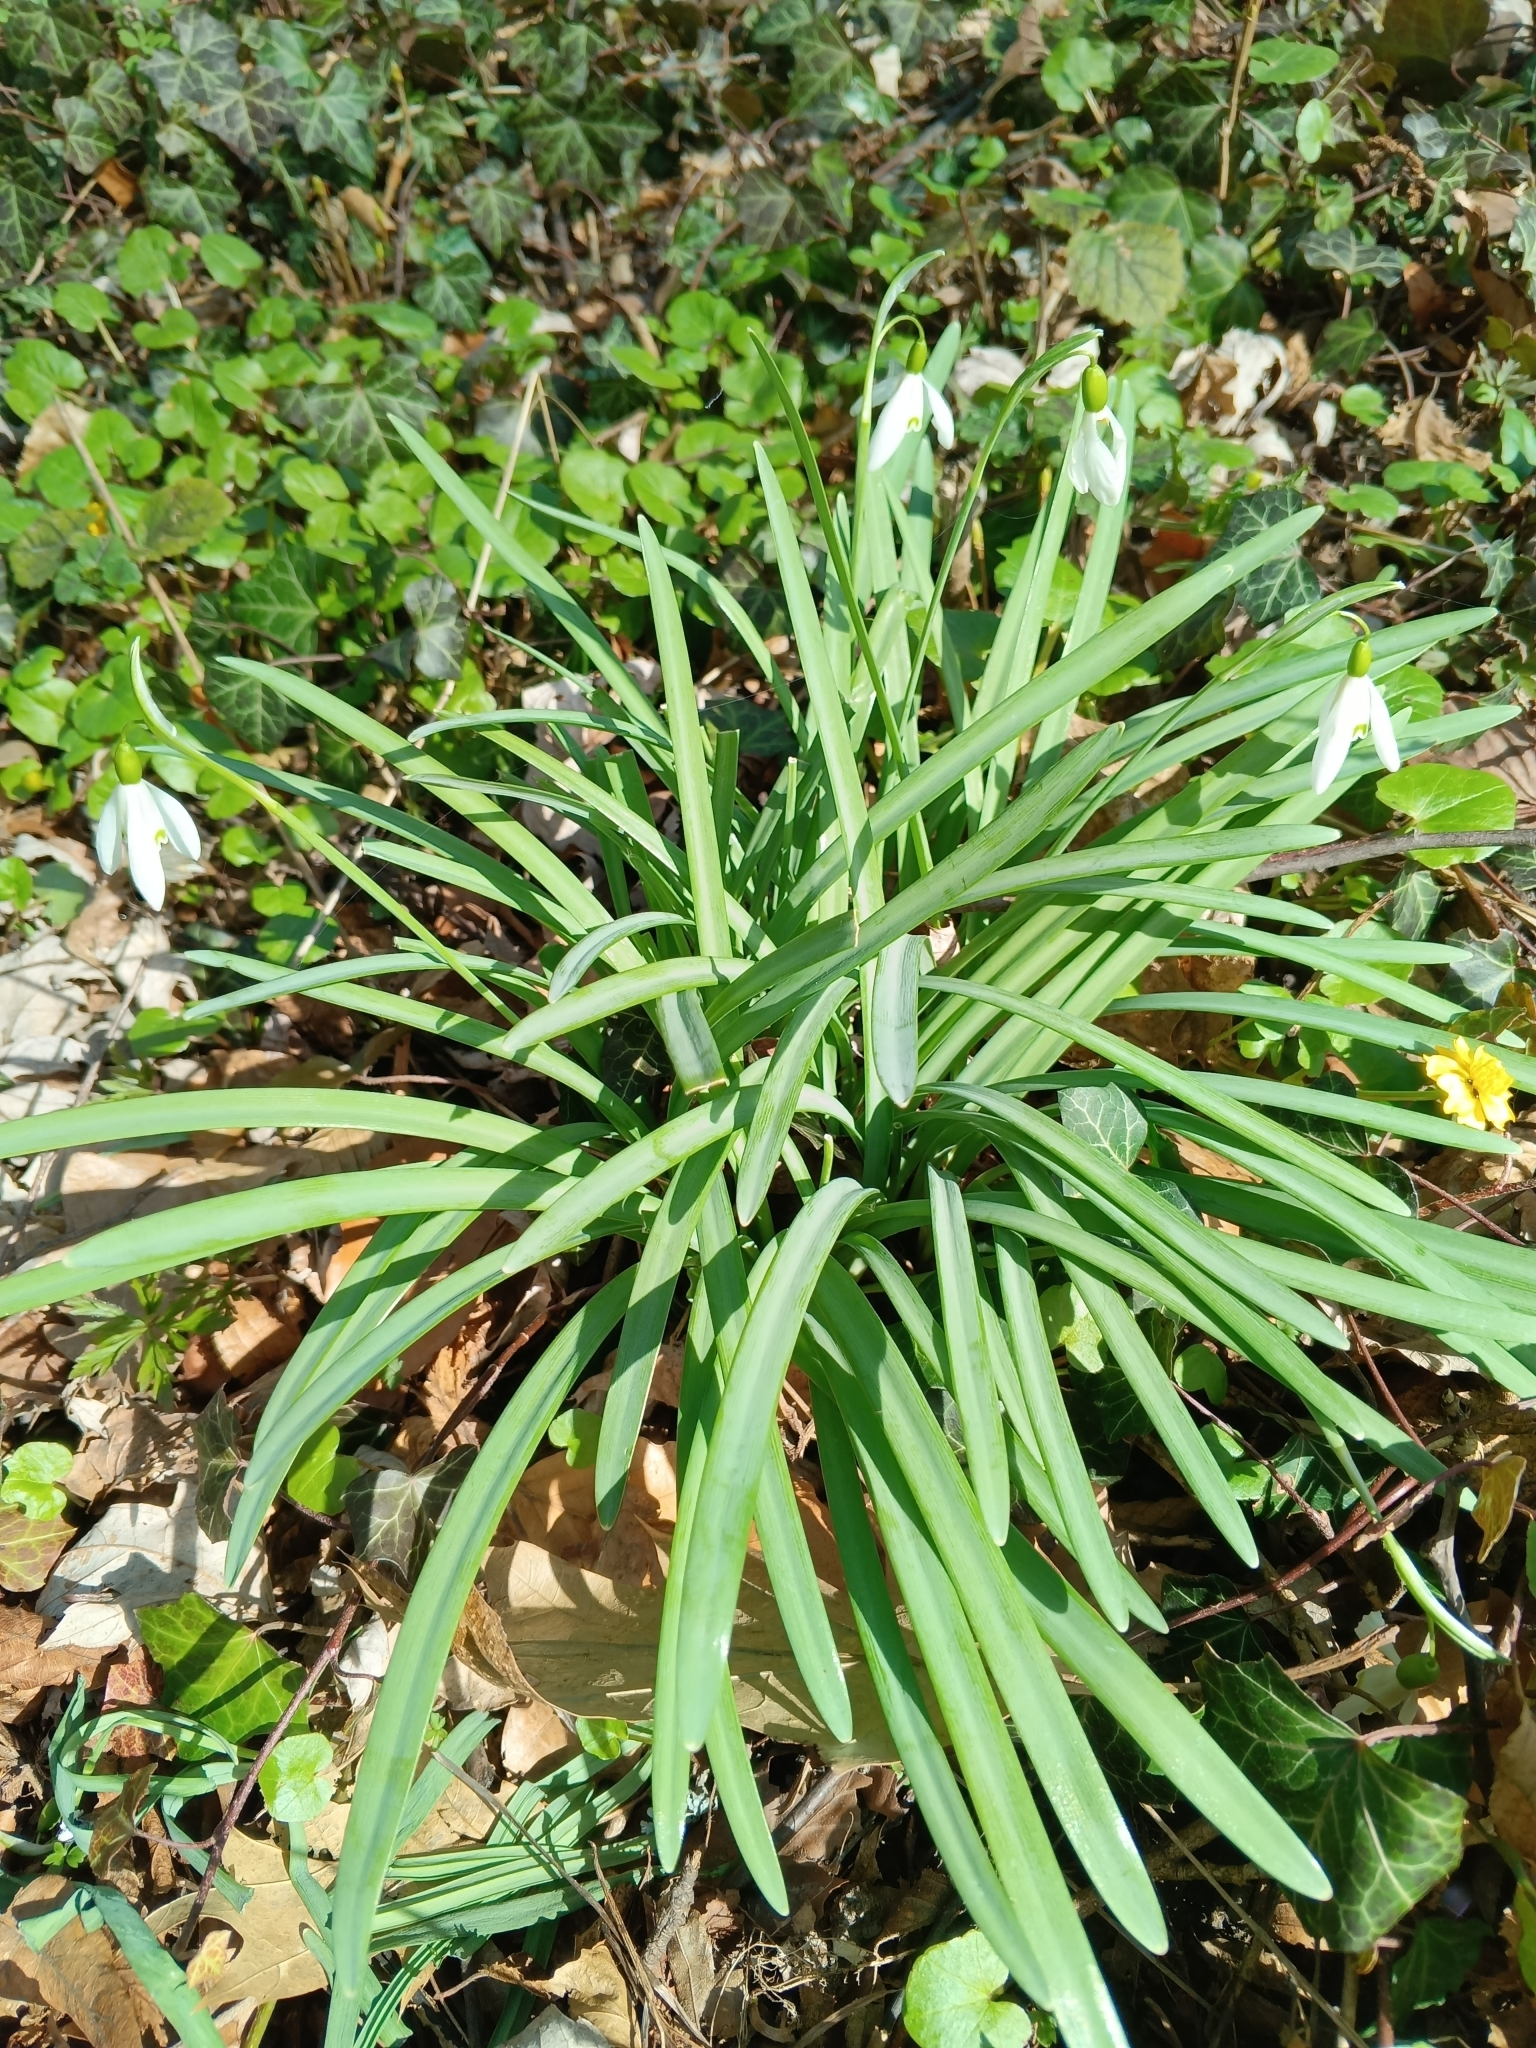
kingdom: Plantae
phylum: Tracheophyta
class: Liliopsida
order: Asparagales
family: Amaryllidaceae
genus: Galanthus
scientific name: Galanthus nivalis
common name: Snowdrop
